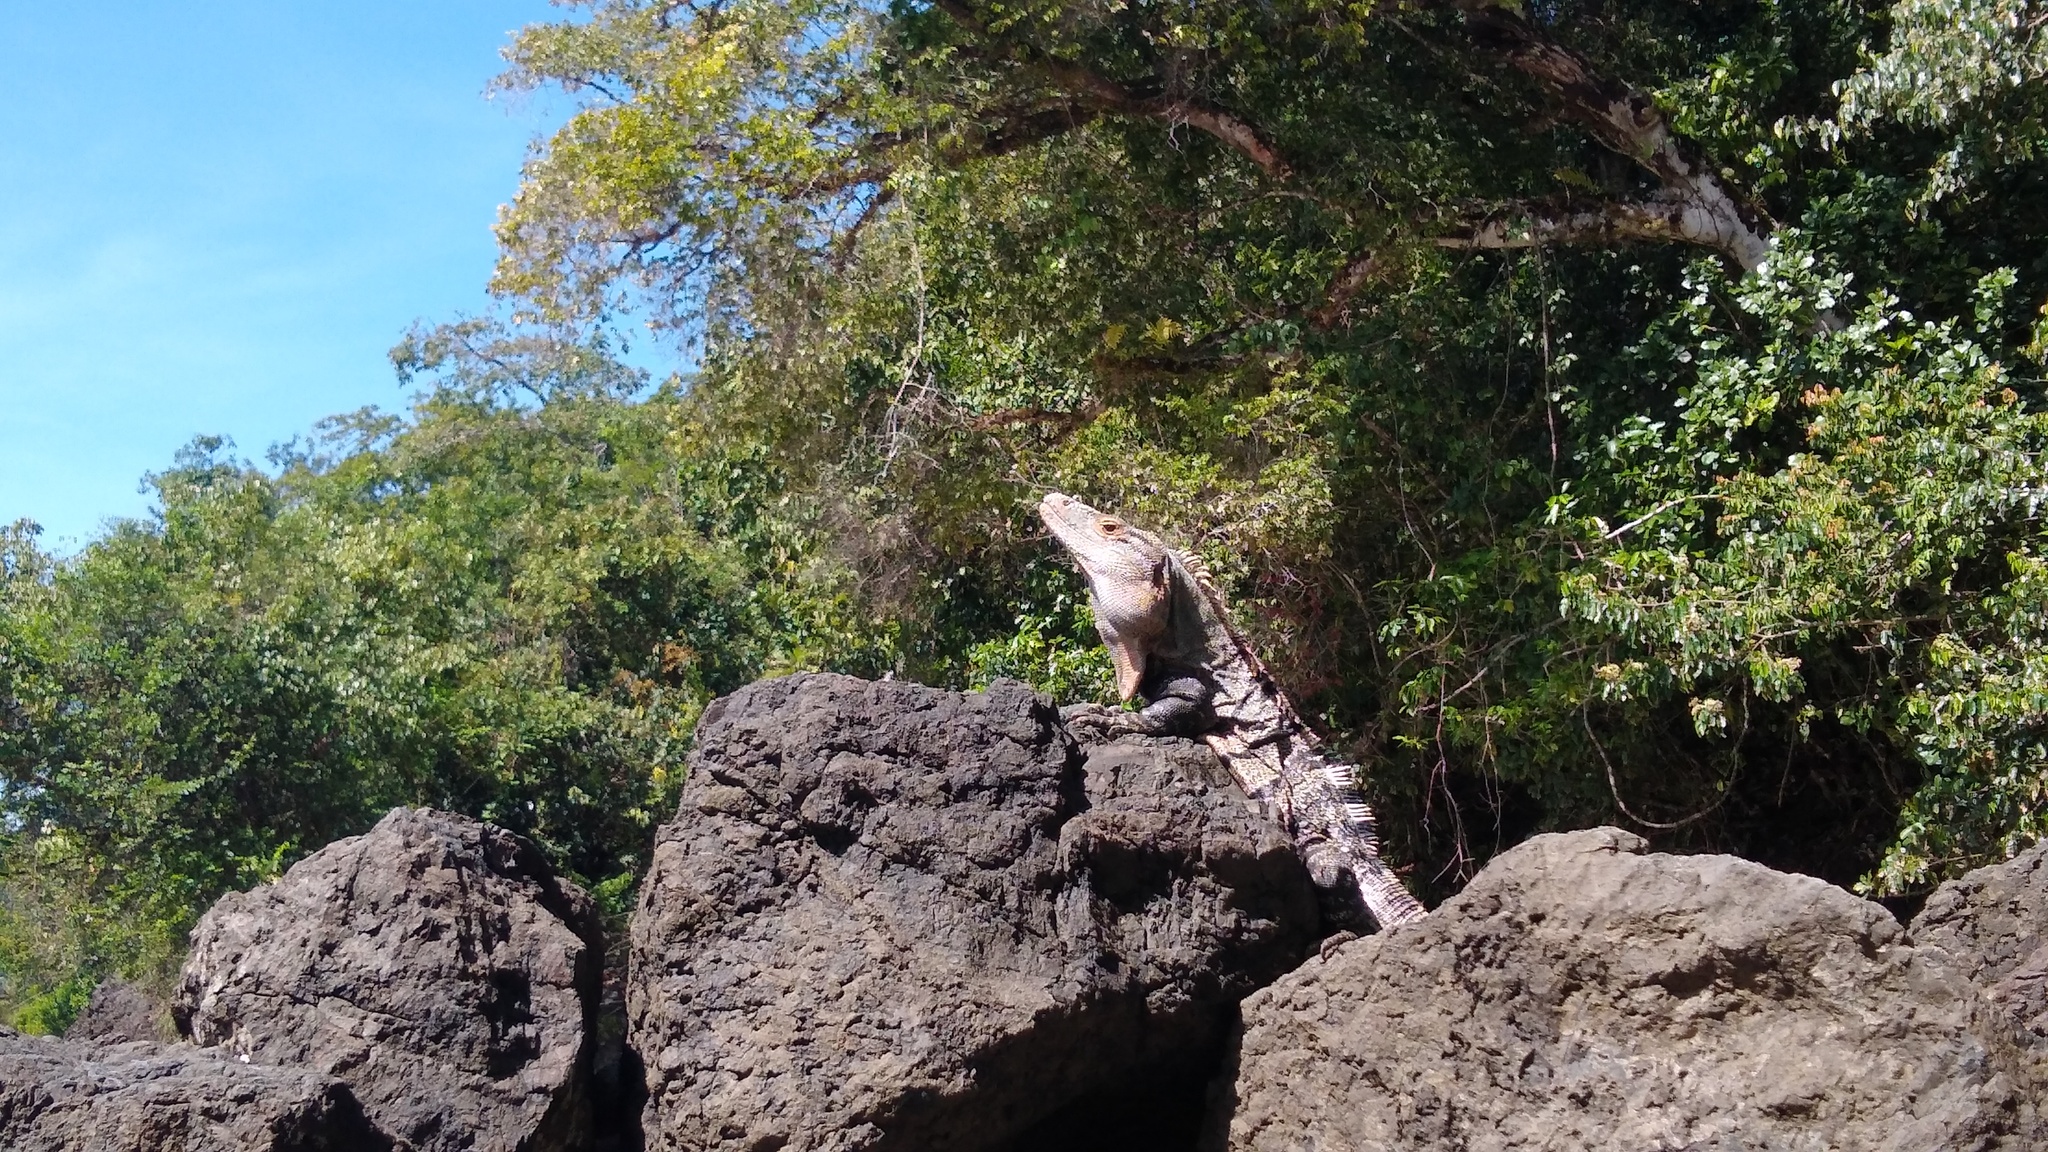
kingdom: Animalia
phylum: Chordata
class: Squamata
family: Iguanidae
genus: Ctenosaura
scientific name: Ctenosaura similis
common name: Black spiny-tailed iguana
